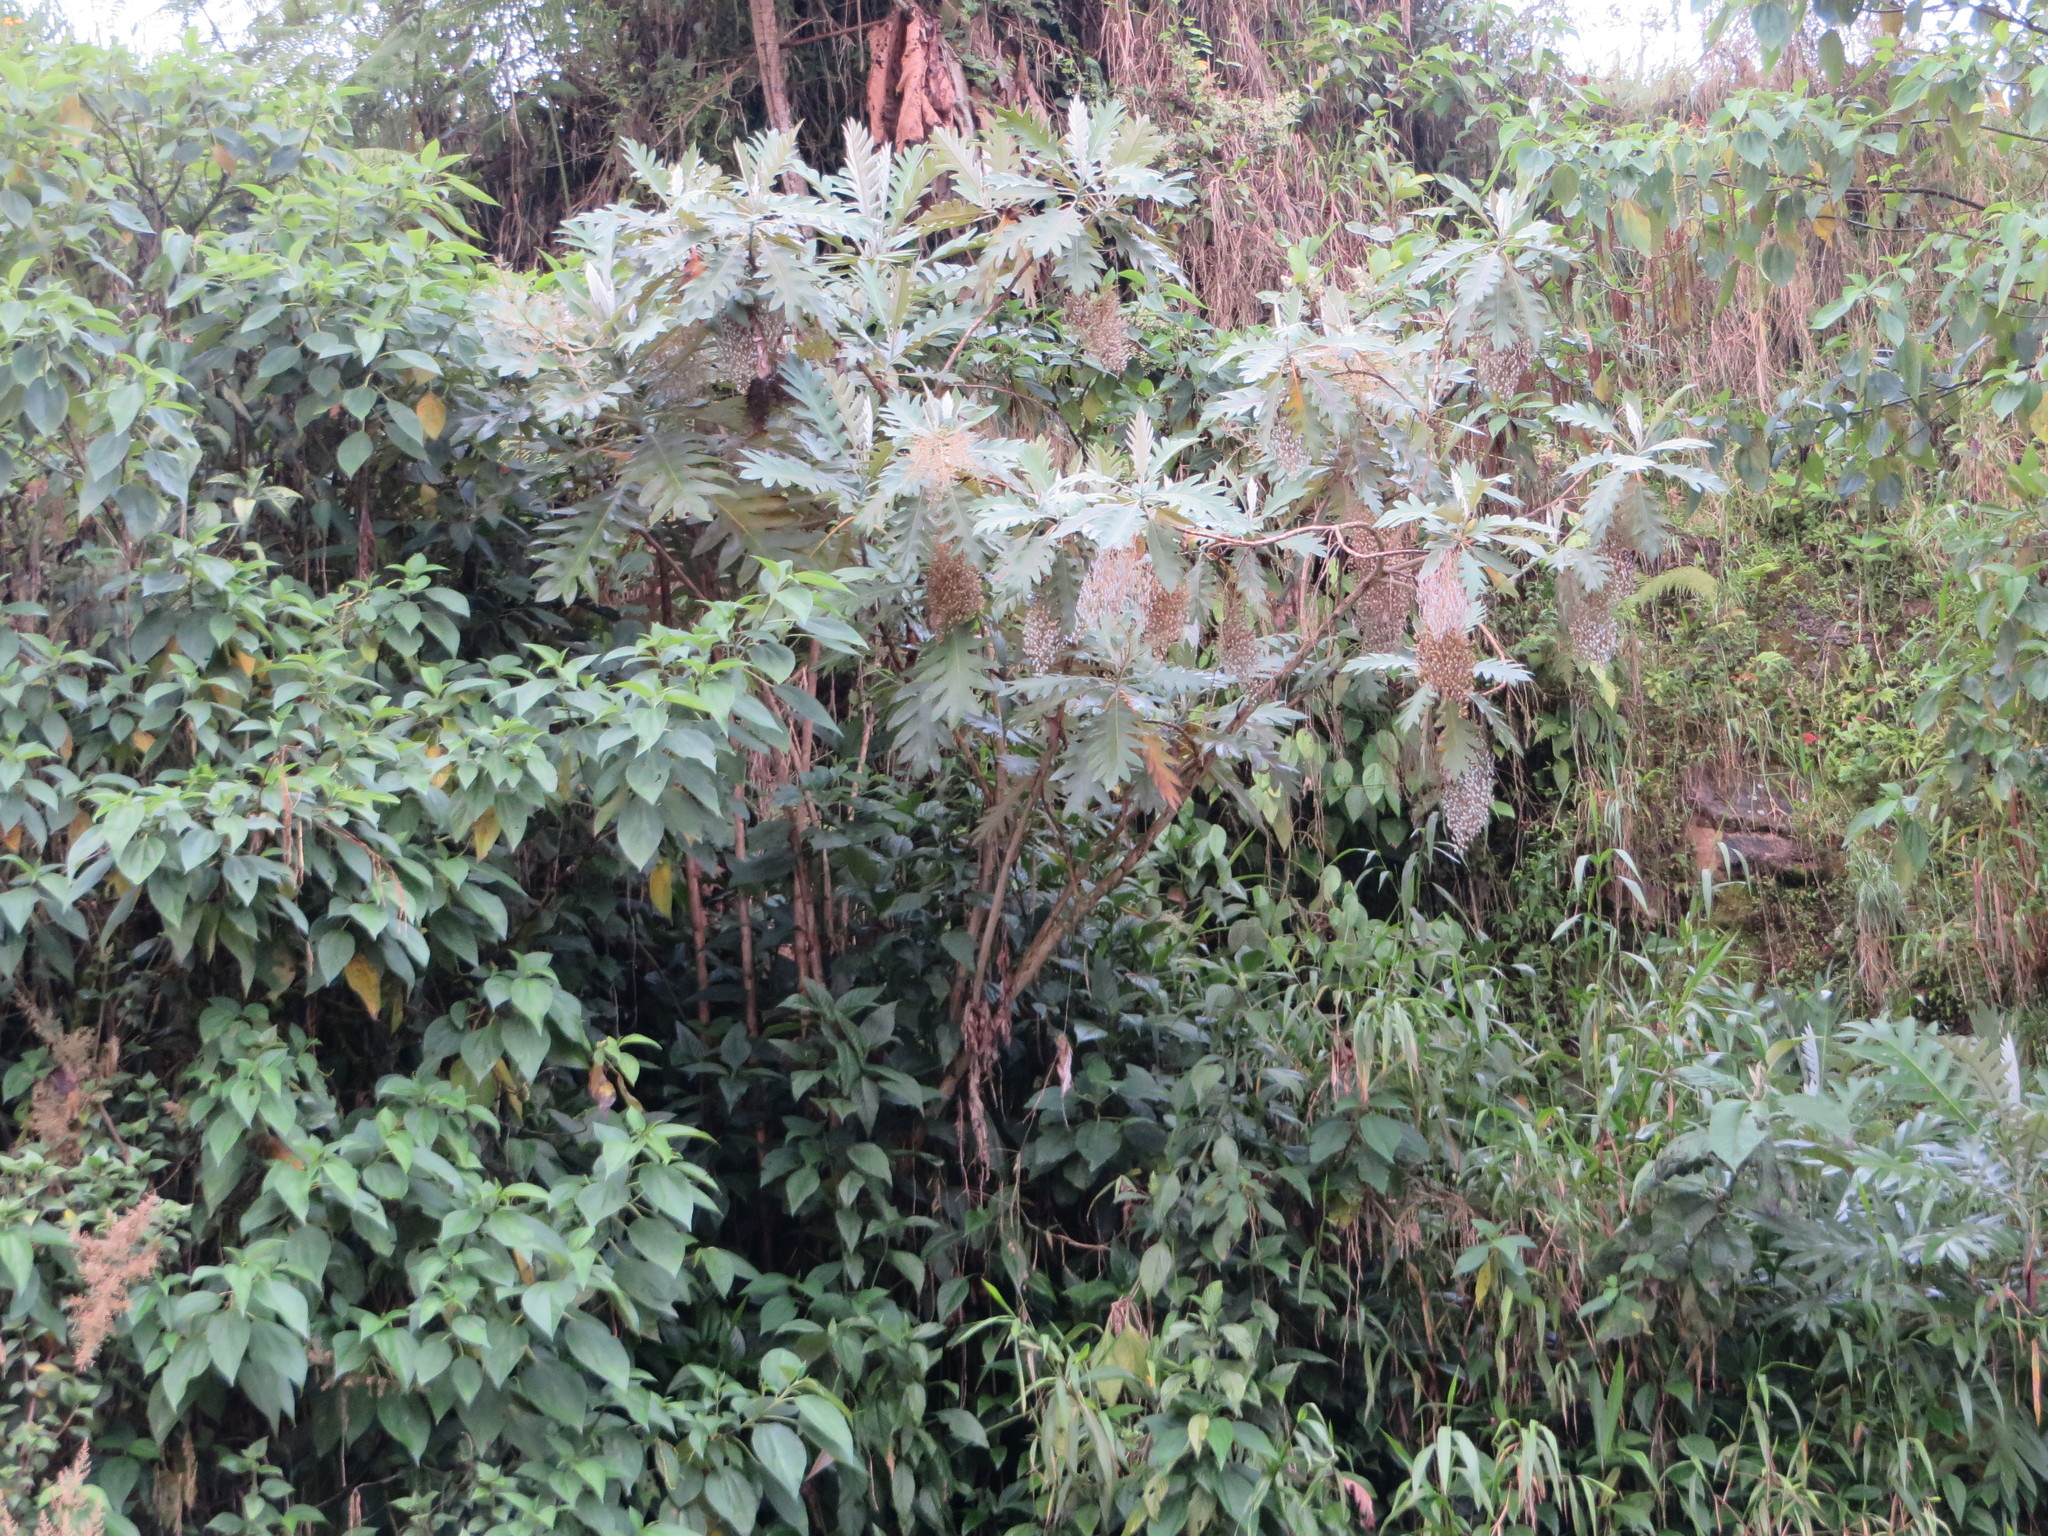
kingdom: Plantae
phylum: Tracheophyta
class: Magnoliopsida
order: Ranunculales
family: Papaveraceae
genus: Bocconia
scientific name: Bocconia frutescens
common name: Tree poppy
